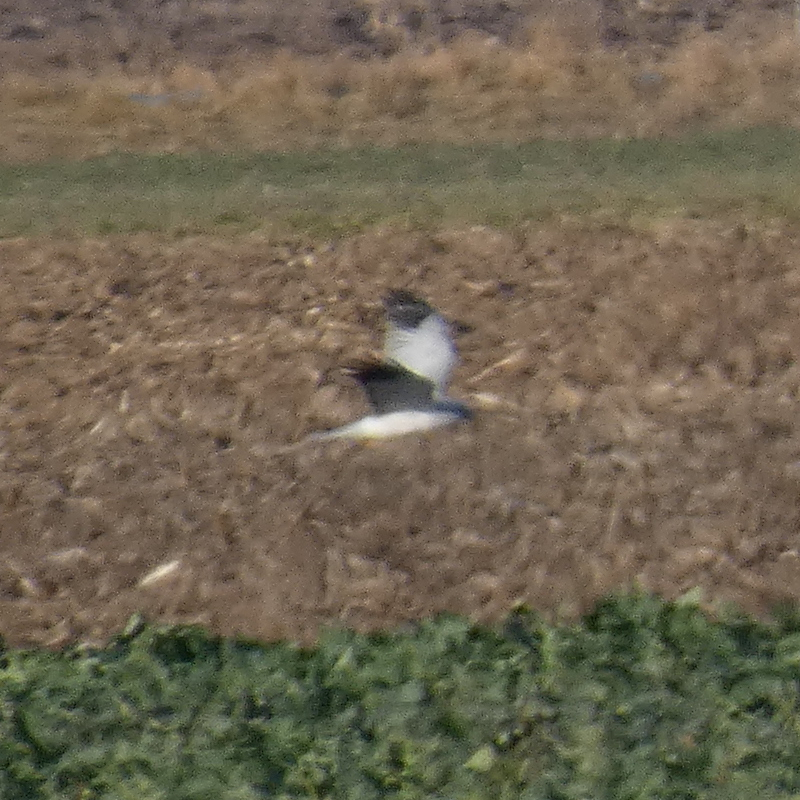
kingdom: Animalia
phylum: Chordata
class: Aves
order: Accipitriformes
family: Accipitridae
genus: Circus
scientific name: Circus cyaneus
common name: Hen harrier
